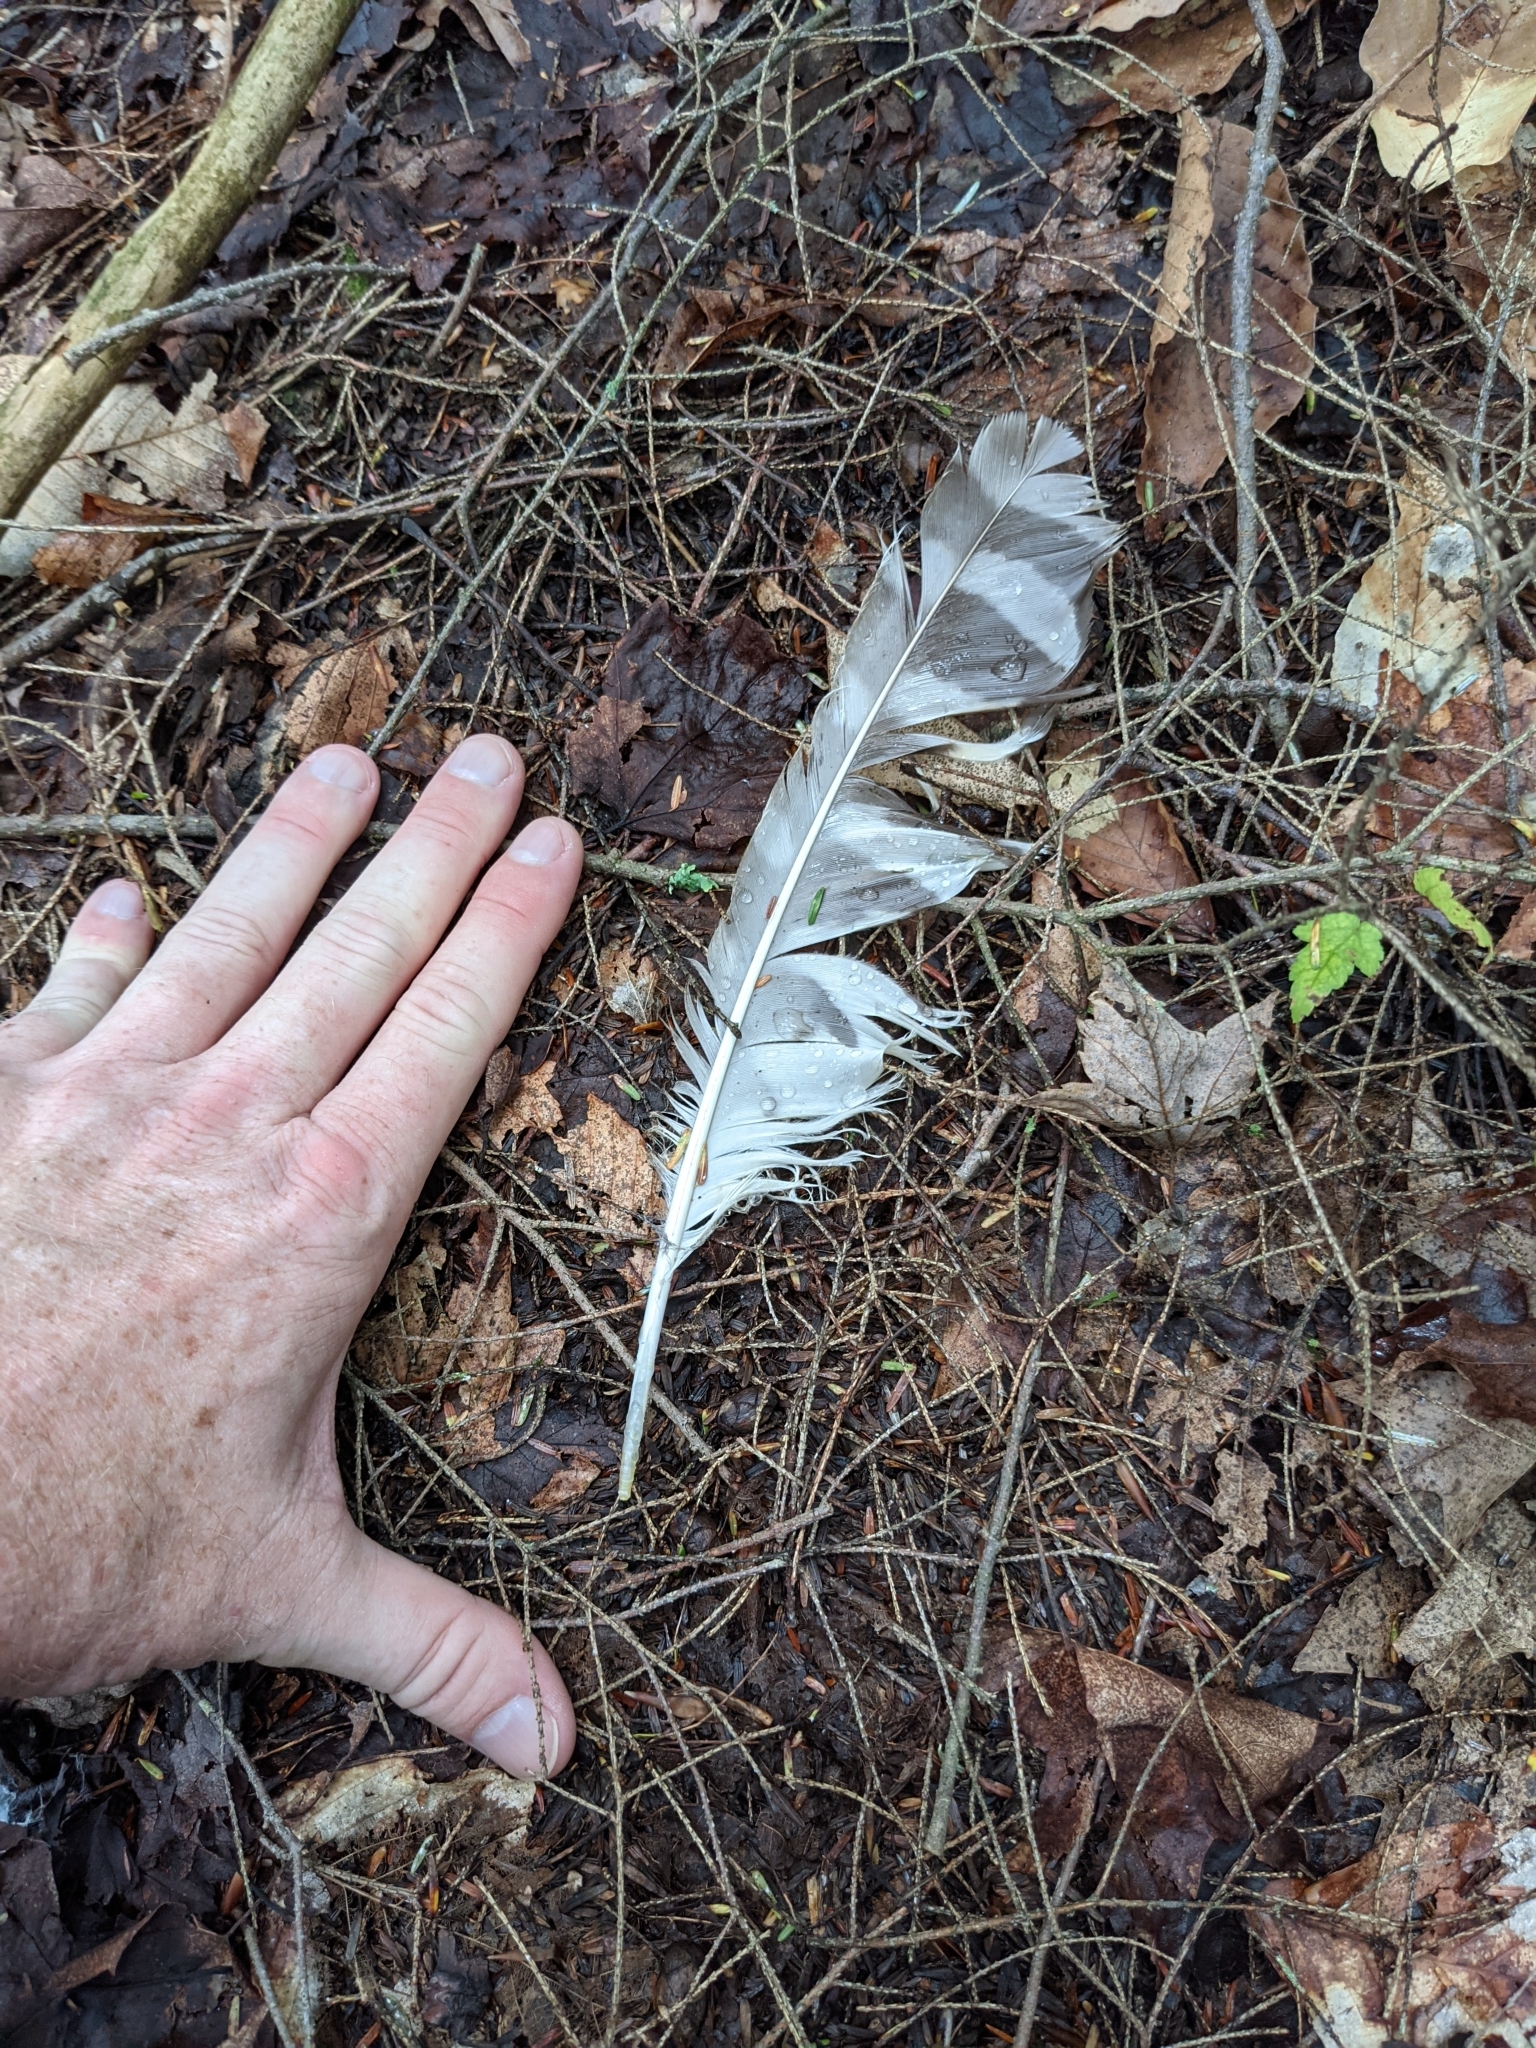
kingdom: Animalia
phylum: Chordata
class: Aves
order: Strigiformes
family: Strigidae
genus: Strix
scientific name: Strix varia
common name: Barred owl
